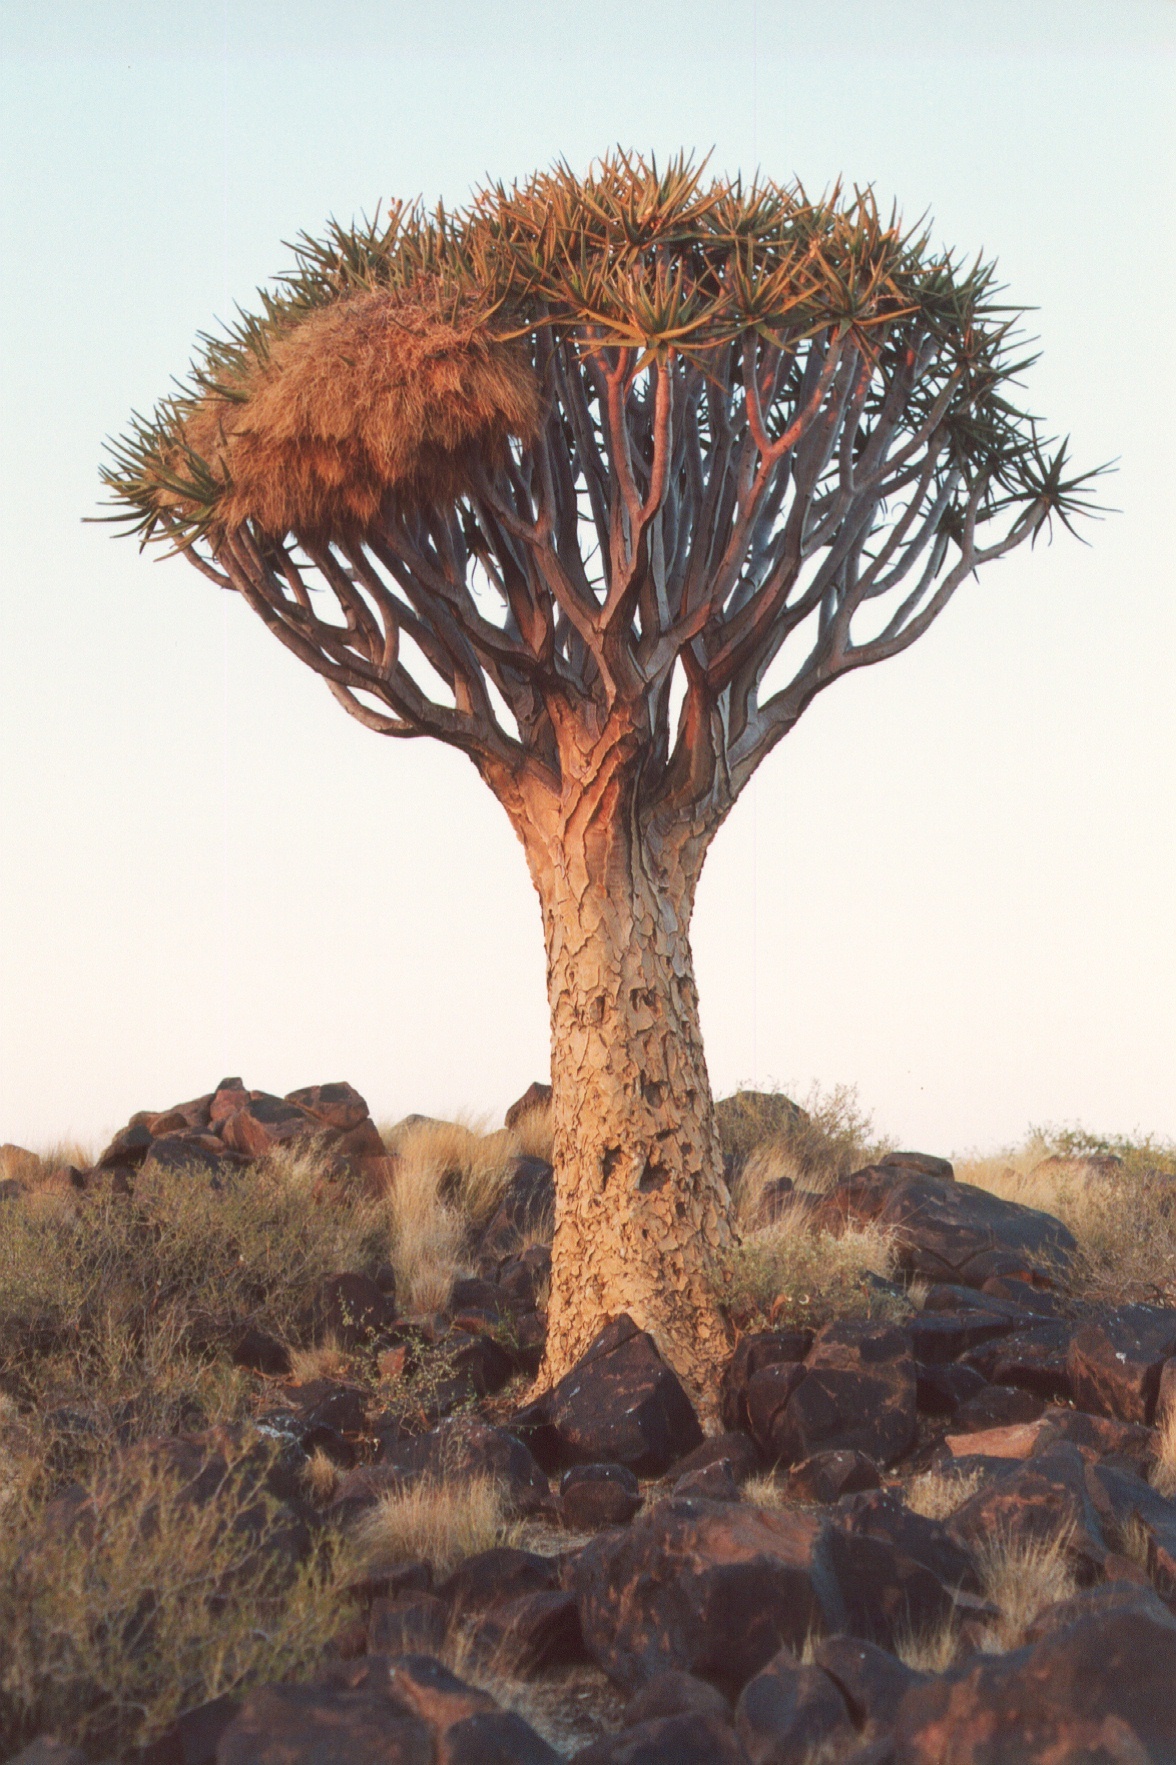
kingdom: Plantae
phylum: Tracheophyta
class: Liliopsida
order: Asparagales
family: Asphodelaceae
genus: Aloidendron
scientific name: Aloidendron dichotomum
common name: Quiver tree
